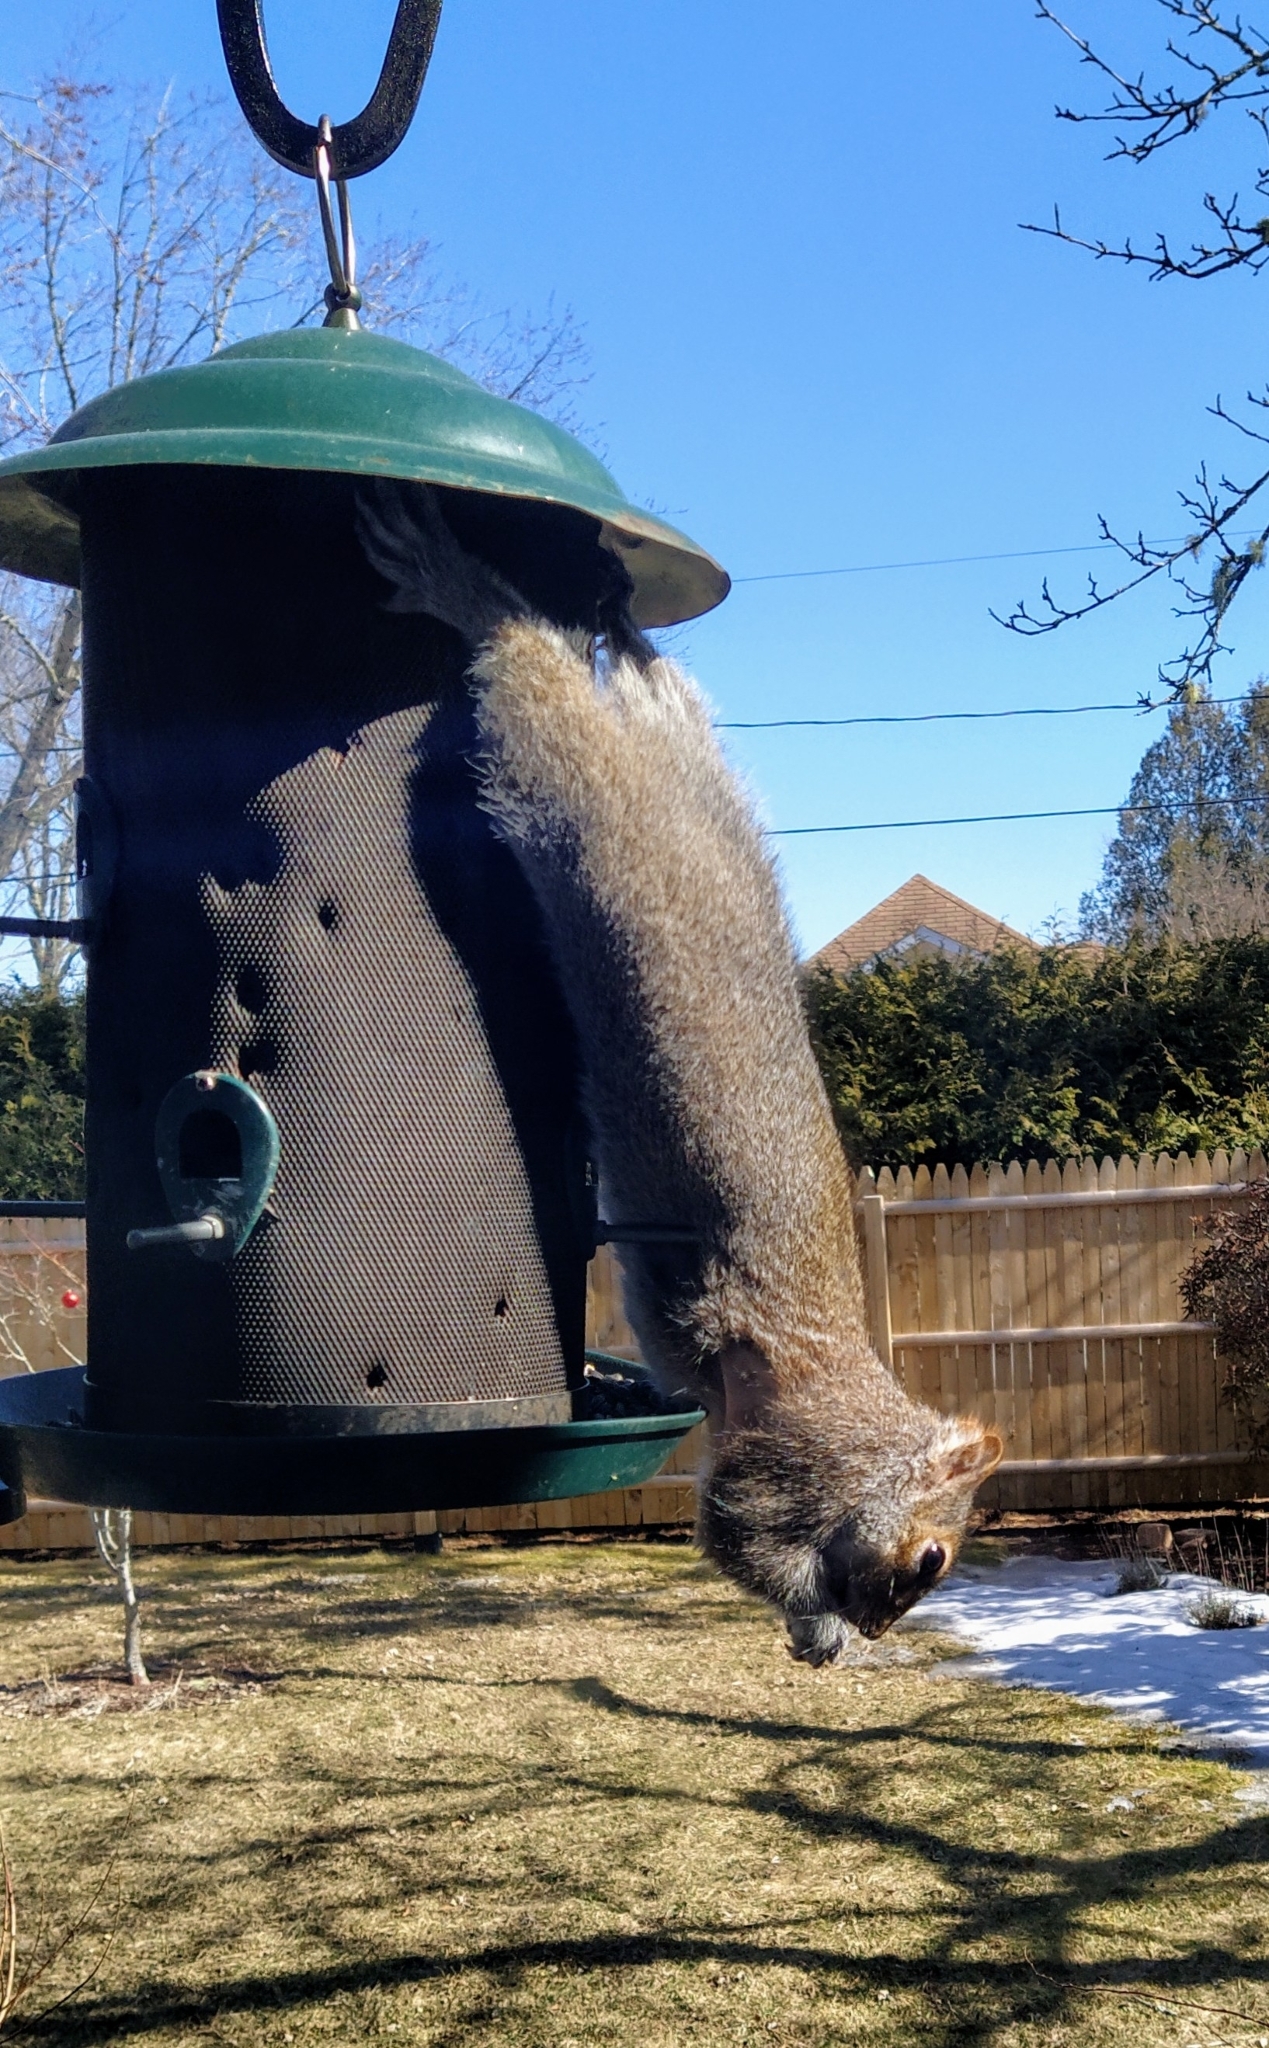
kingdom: Animalia
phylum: Chordata
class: Mammalia
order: Rodentia
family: Sciuridae
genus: Sciurus
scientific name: Sciurus carolinensis
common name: Eastern gray squirrel
